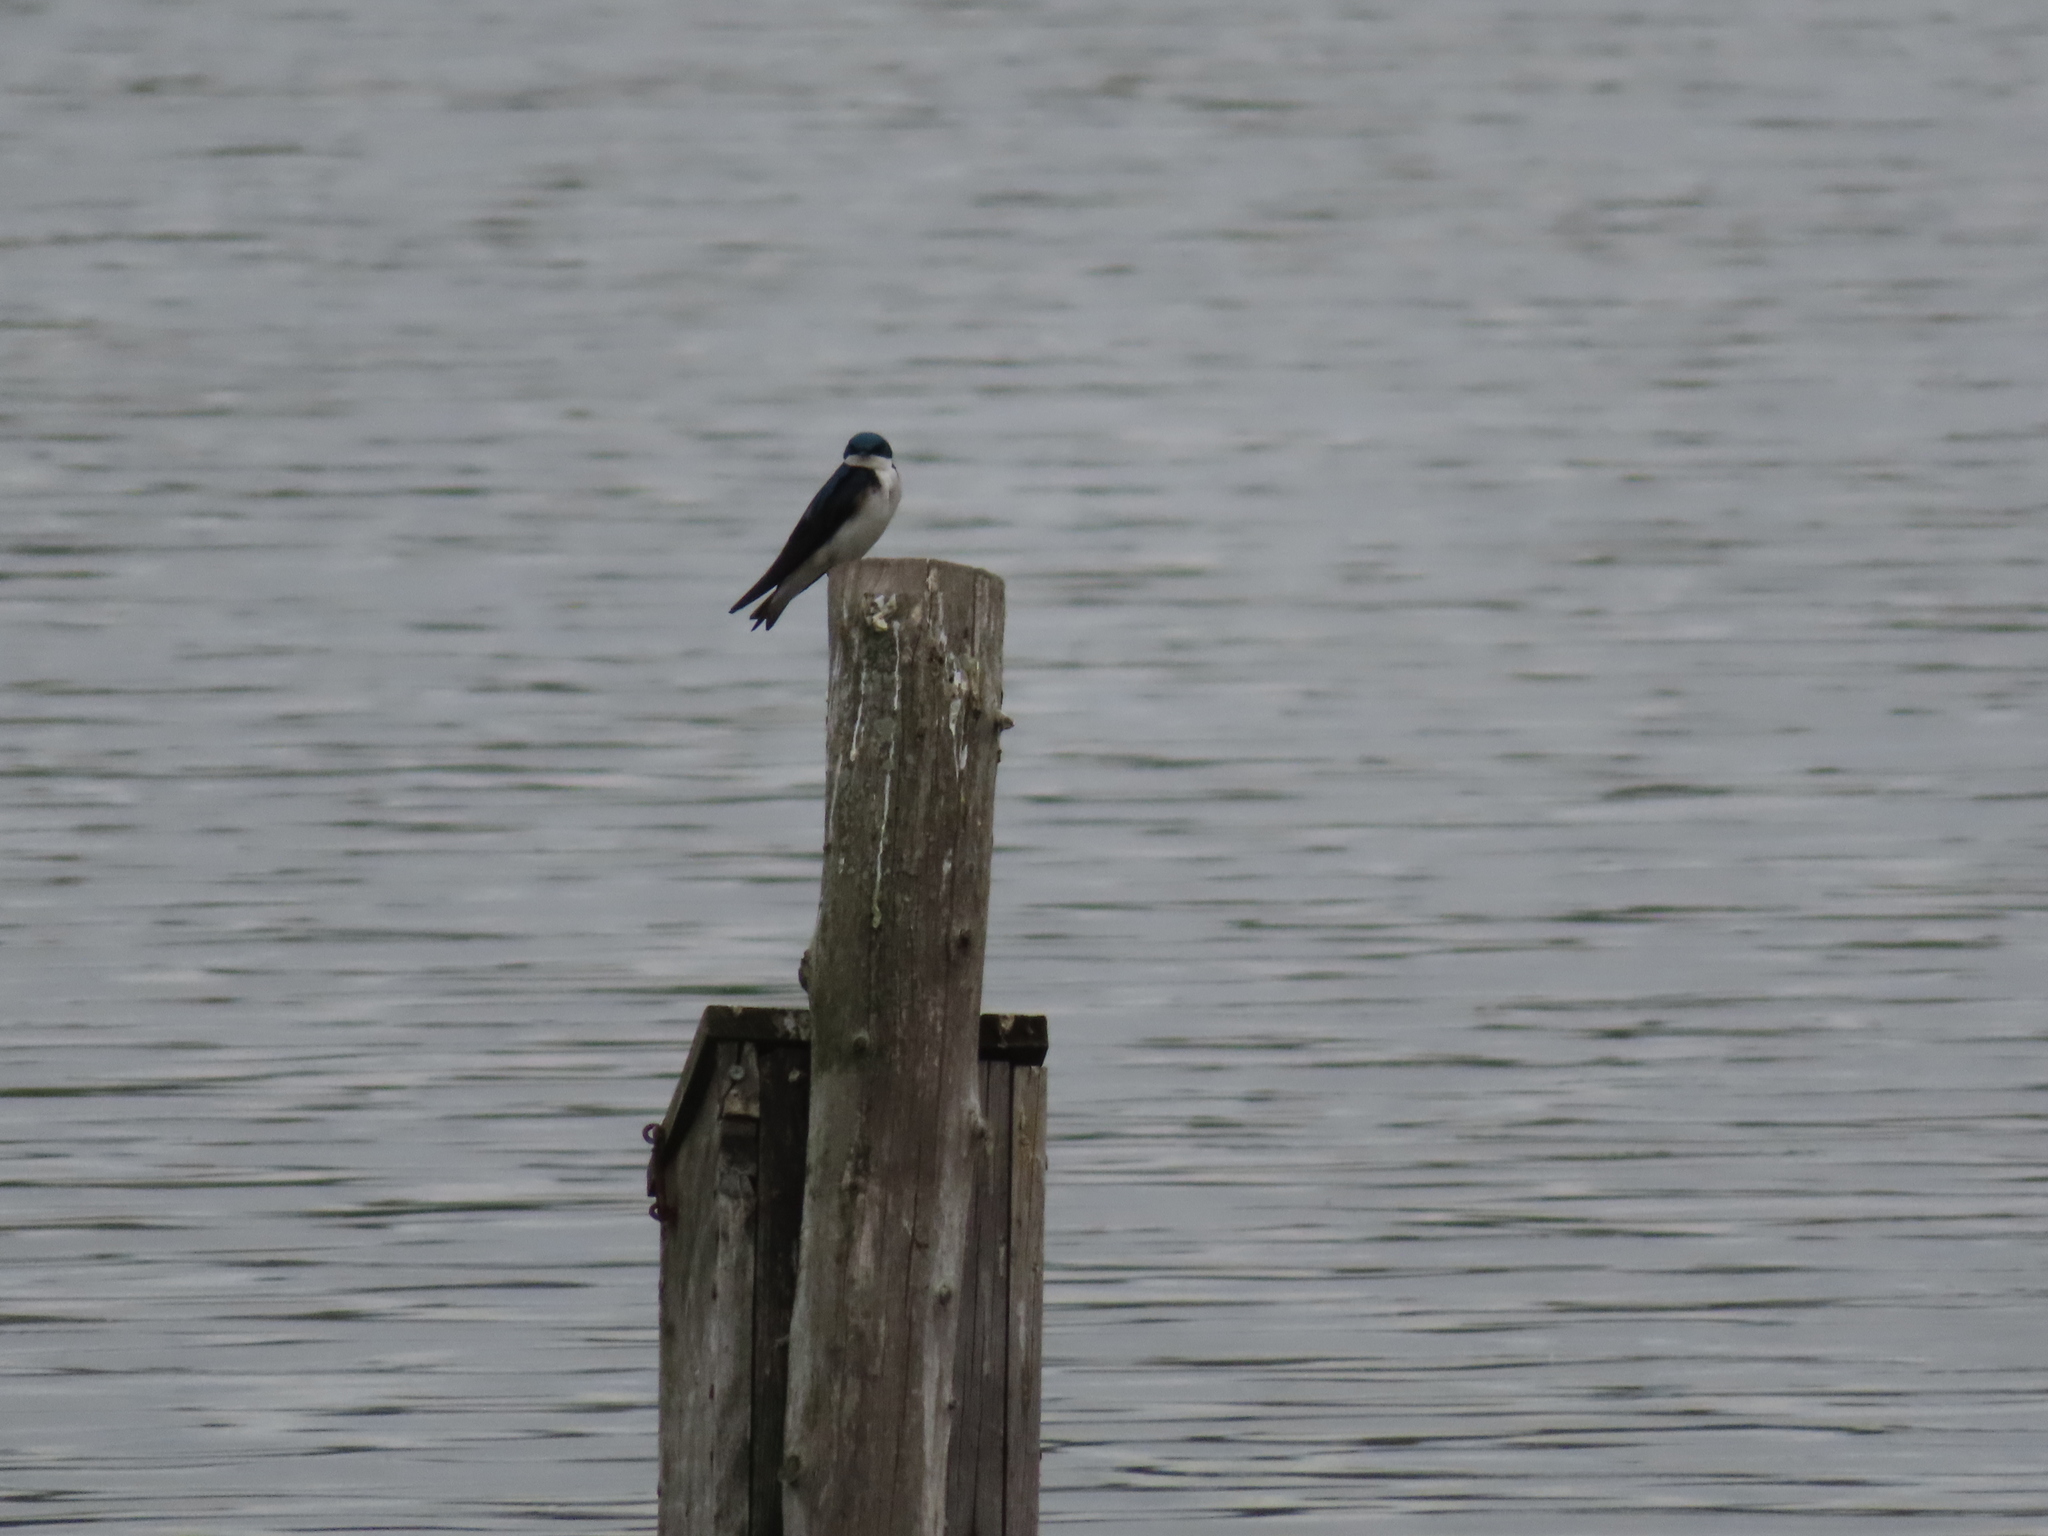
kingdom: Animalia
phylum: Chordata
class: Aves
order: Passeriformes
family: Hirundinidae
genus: Tachycineta
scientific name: Tachycineta bicolor
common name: Tree swallow
